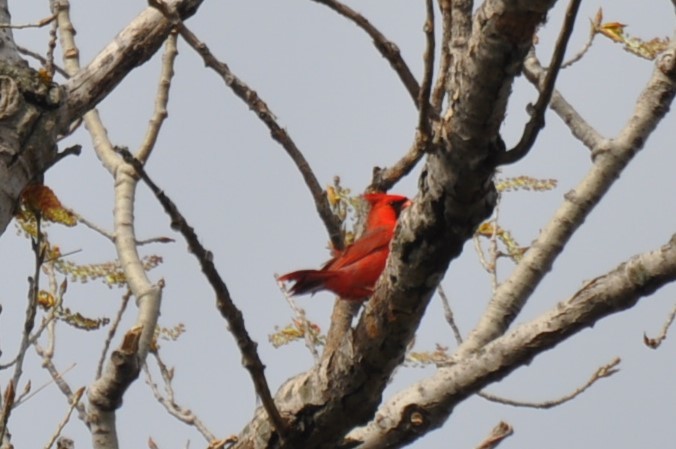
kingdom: Animalia
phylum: Chordata
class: Aves
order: Passeriformes
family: Cardinalidae
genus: Cardinalis
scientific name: Cardinalis cardinalis
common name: Northern cardinal
